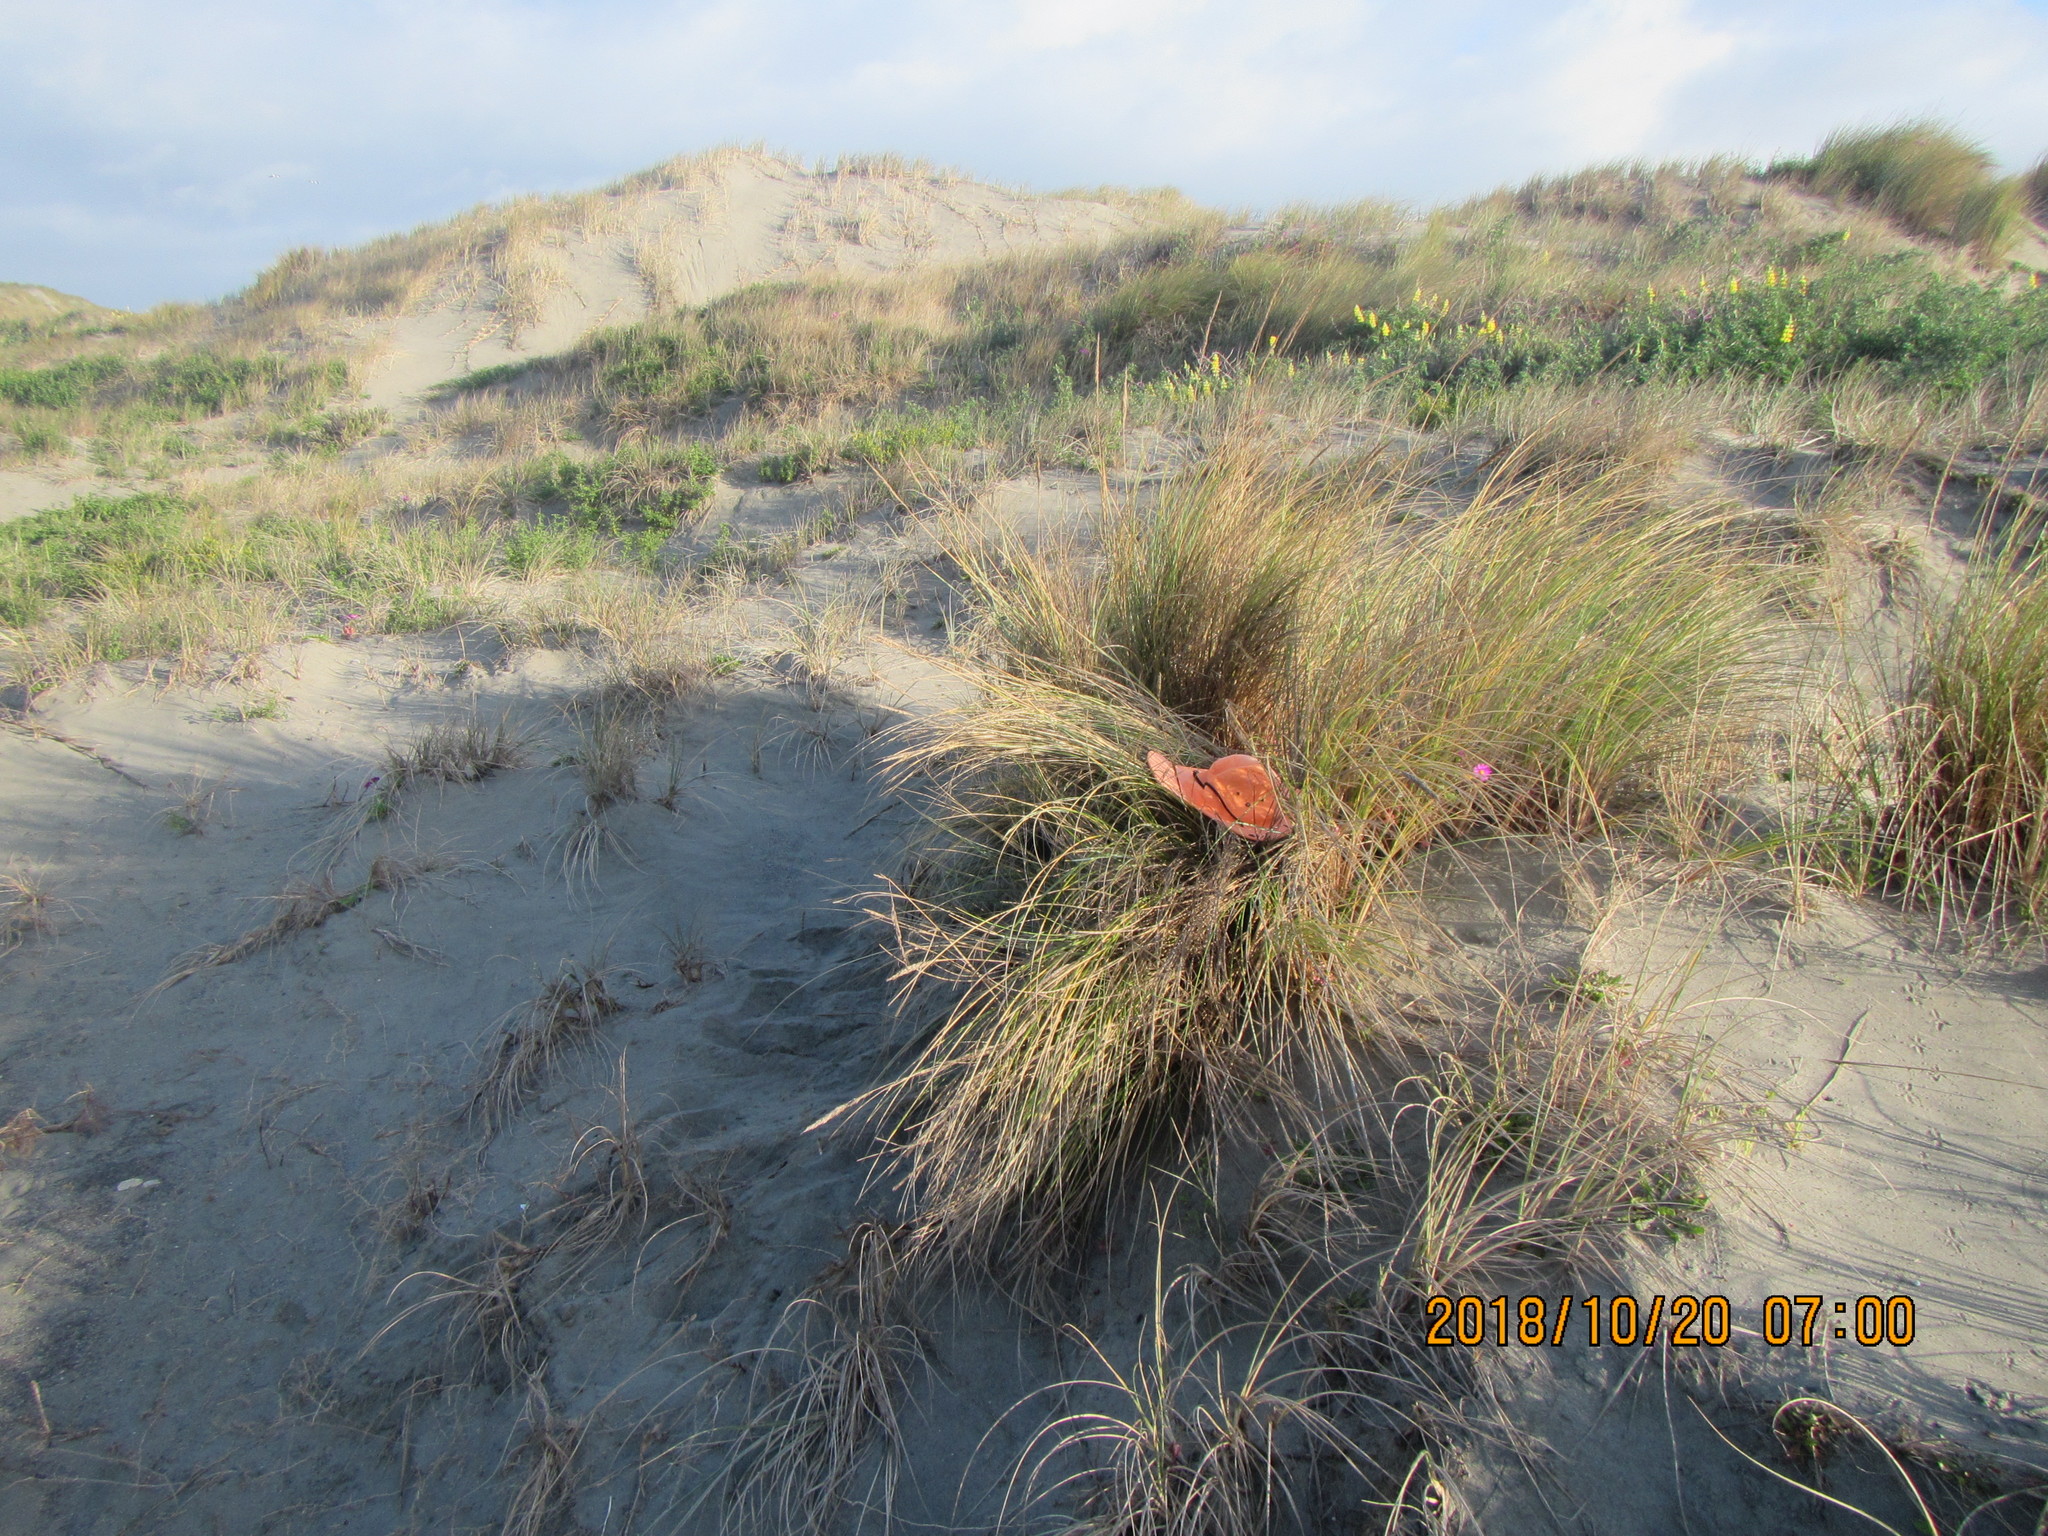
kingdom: Animalia
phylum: Arthropoda
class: Arachnida
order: Araneae
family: Thomisidae
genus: Sidymella
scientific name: Sidymella trapezia
